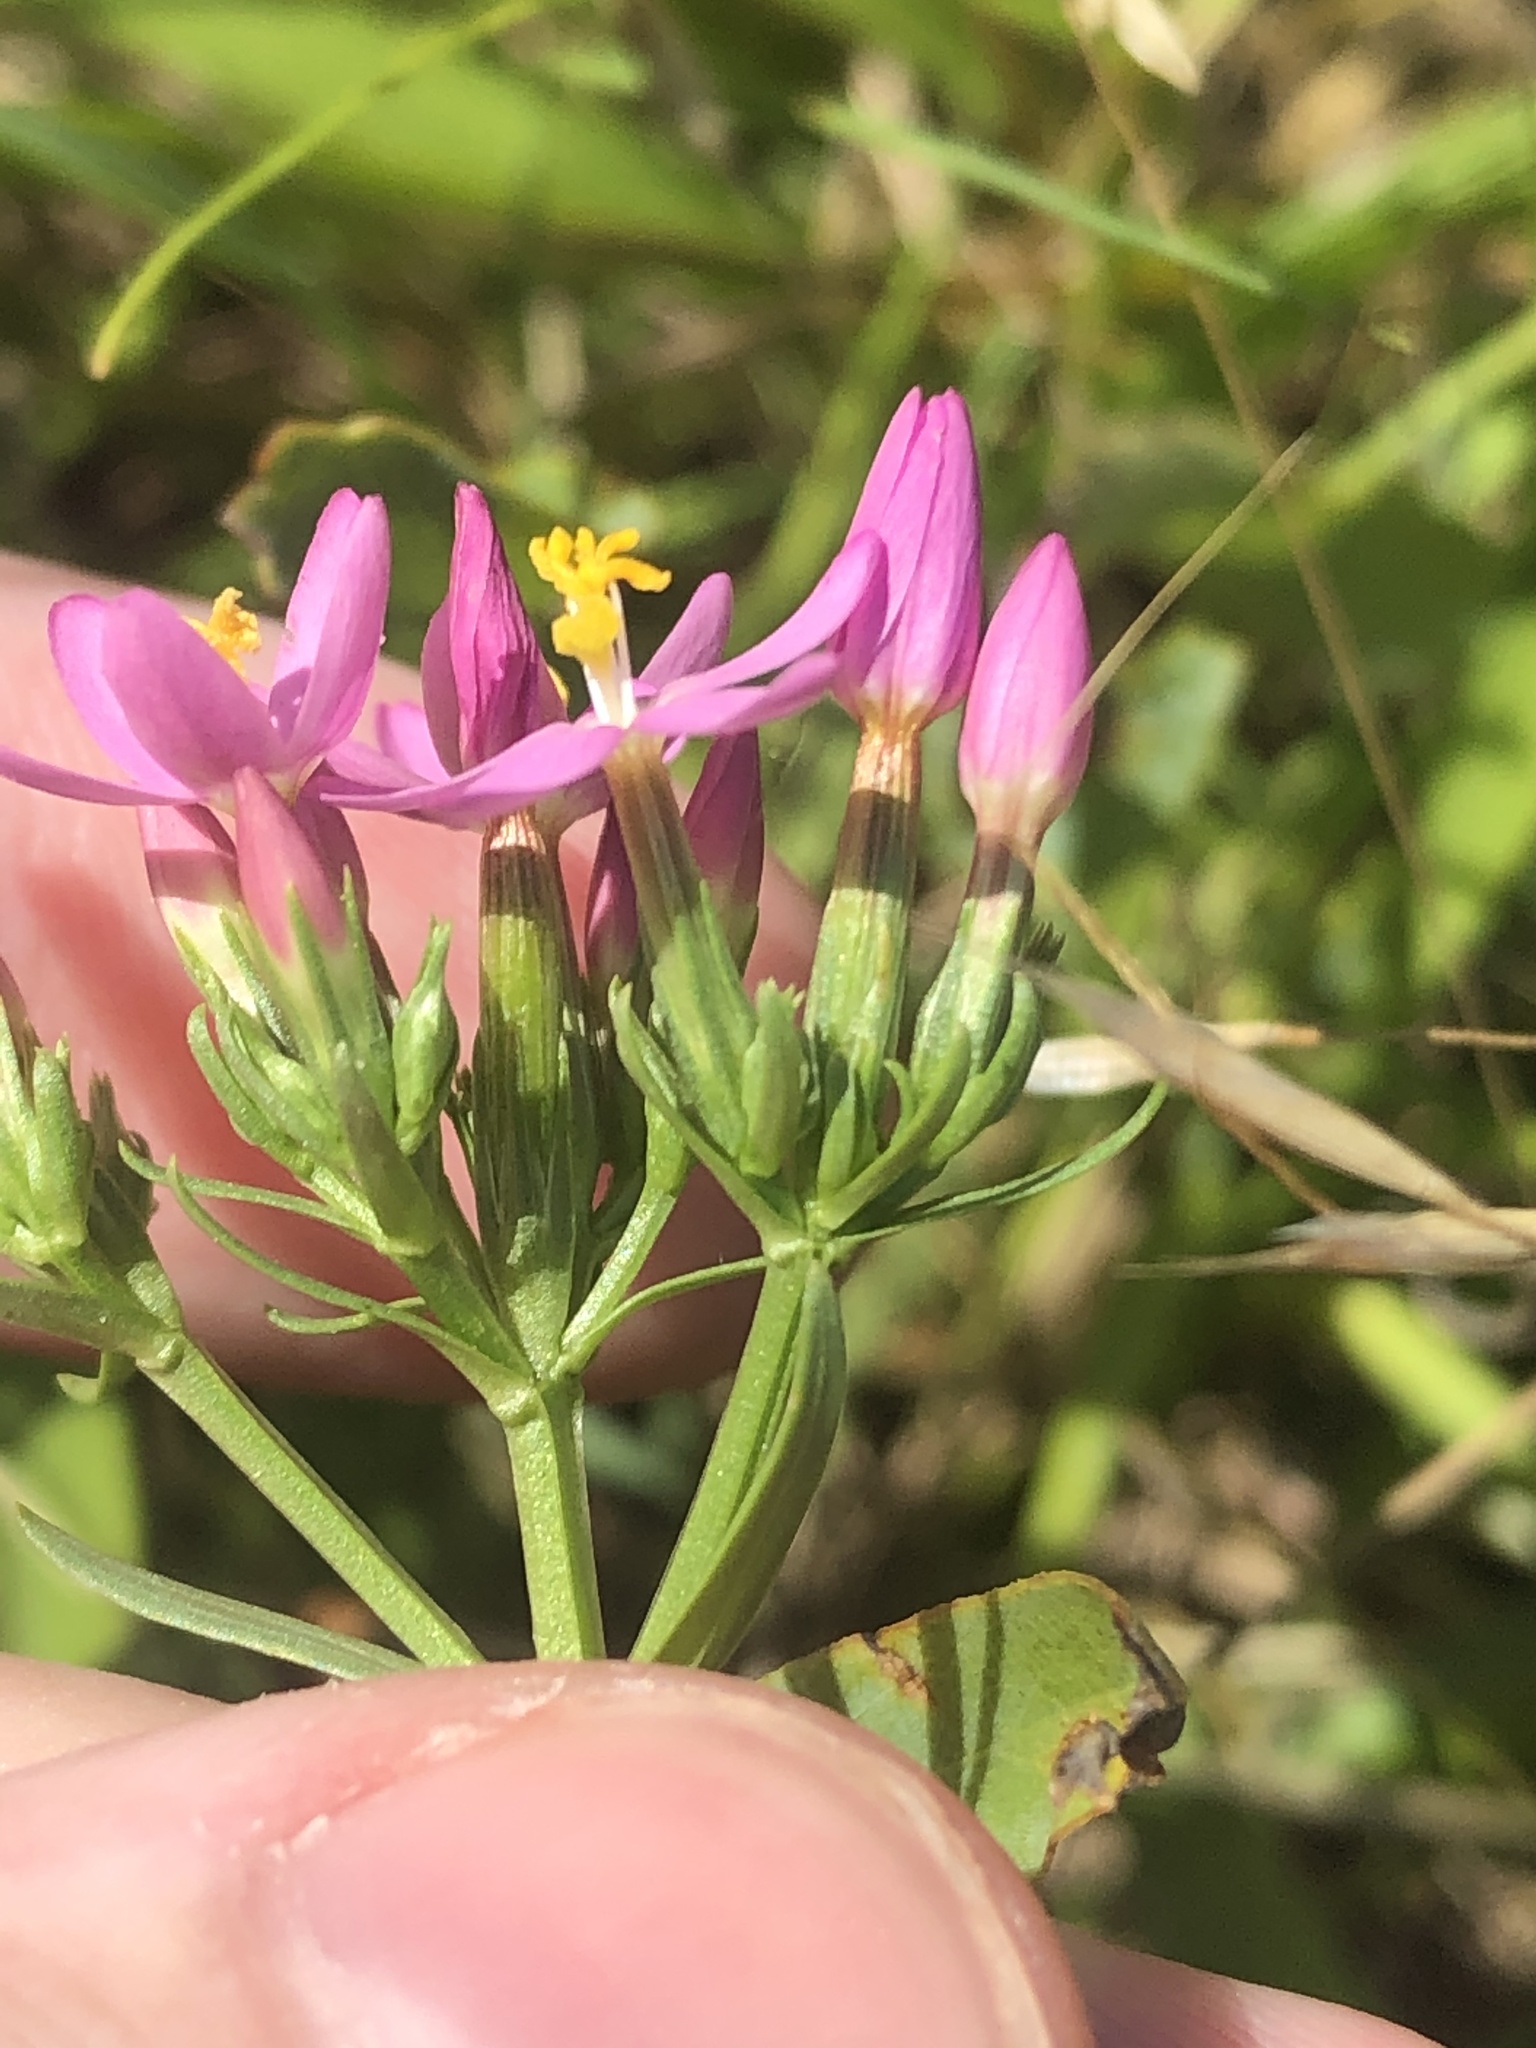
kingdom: Plantae
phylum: Tracheophyta
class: Magnoliopsida
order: Gentianales
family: Gentianaceae
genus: Centaurium
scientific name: Centaurium erythraea
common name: Common centaury
